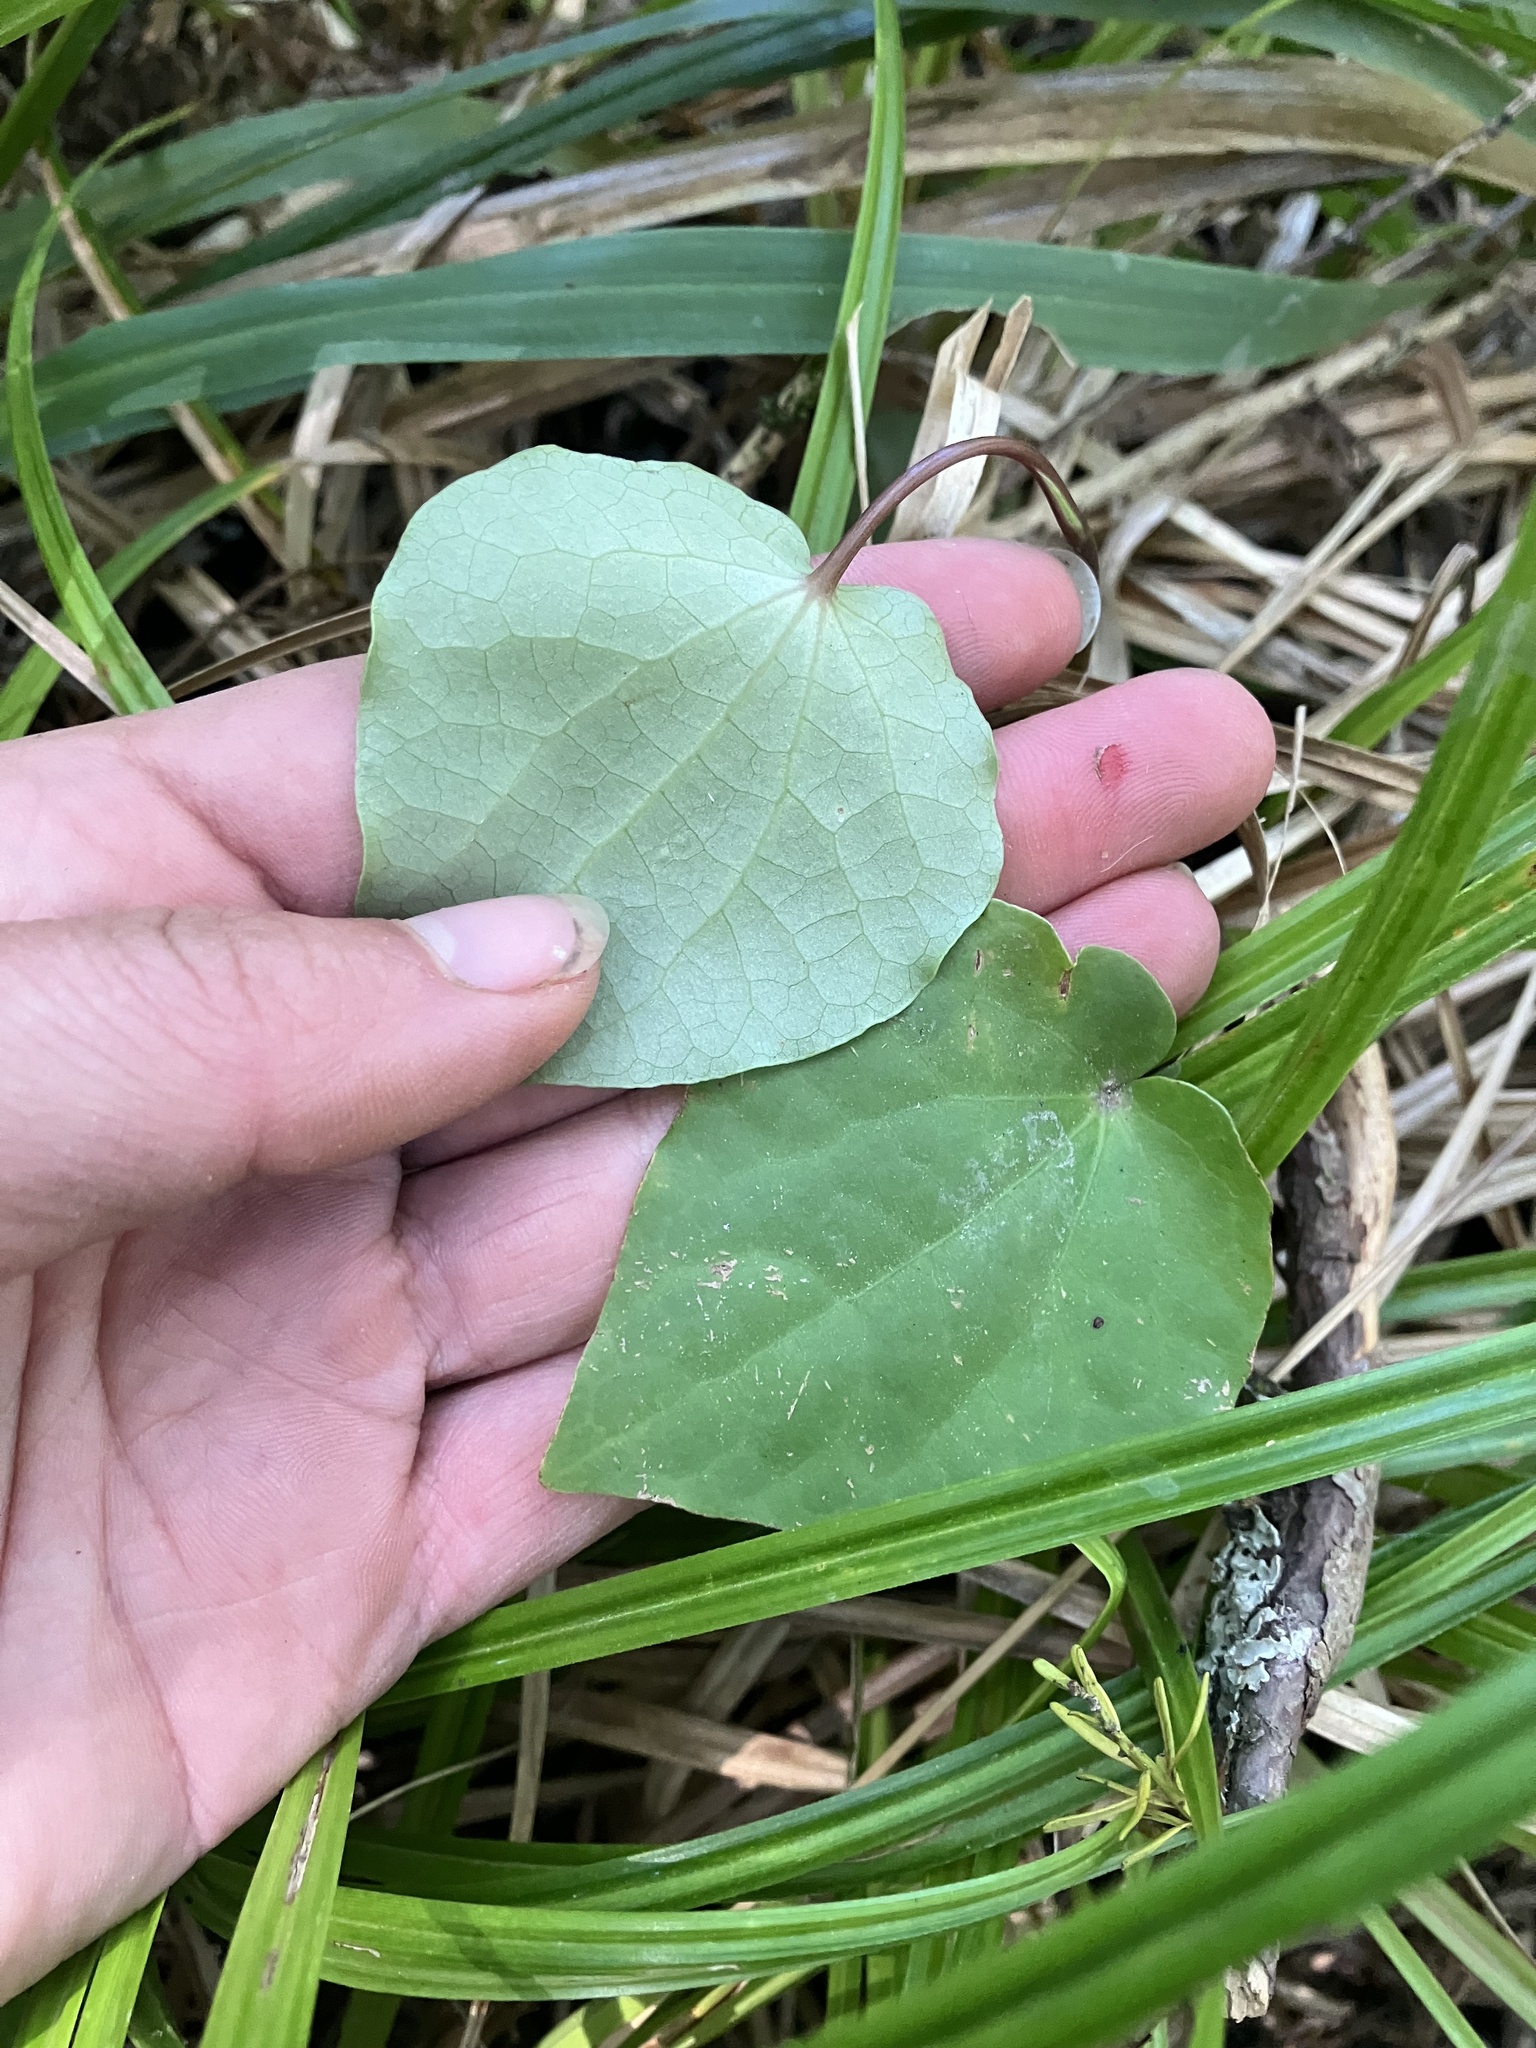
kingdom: Plantae
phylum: Tracheophyta
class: Magnoliopsida
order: Piperales
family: Piperaceae
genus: Macropiper
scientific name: Macropiper excelsum
